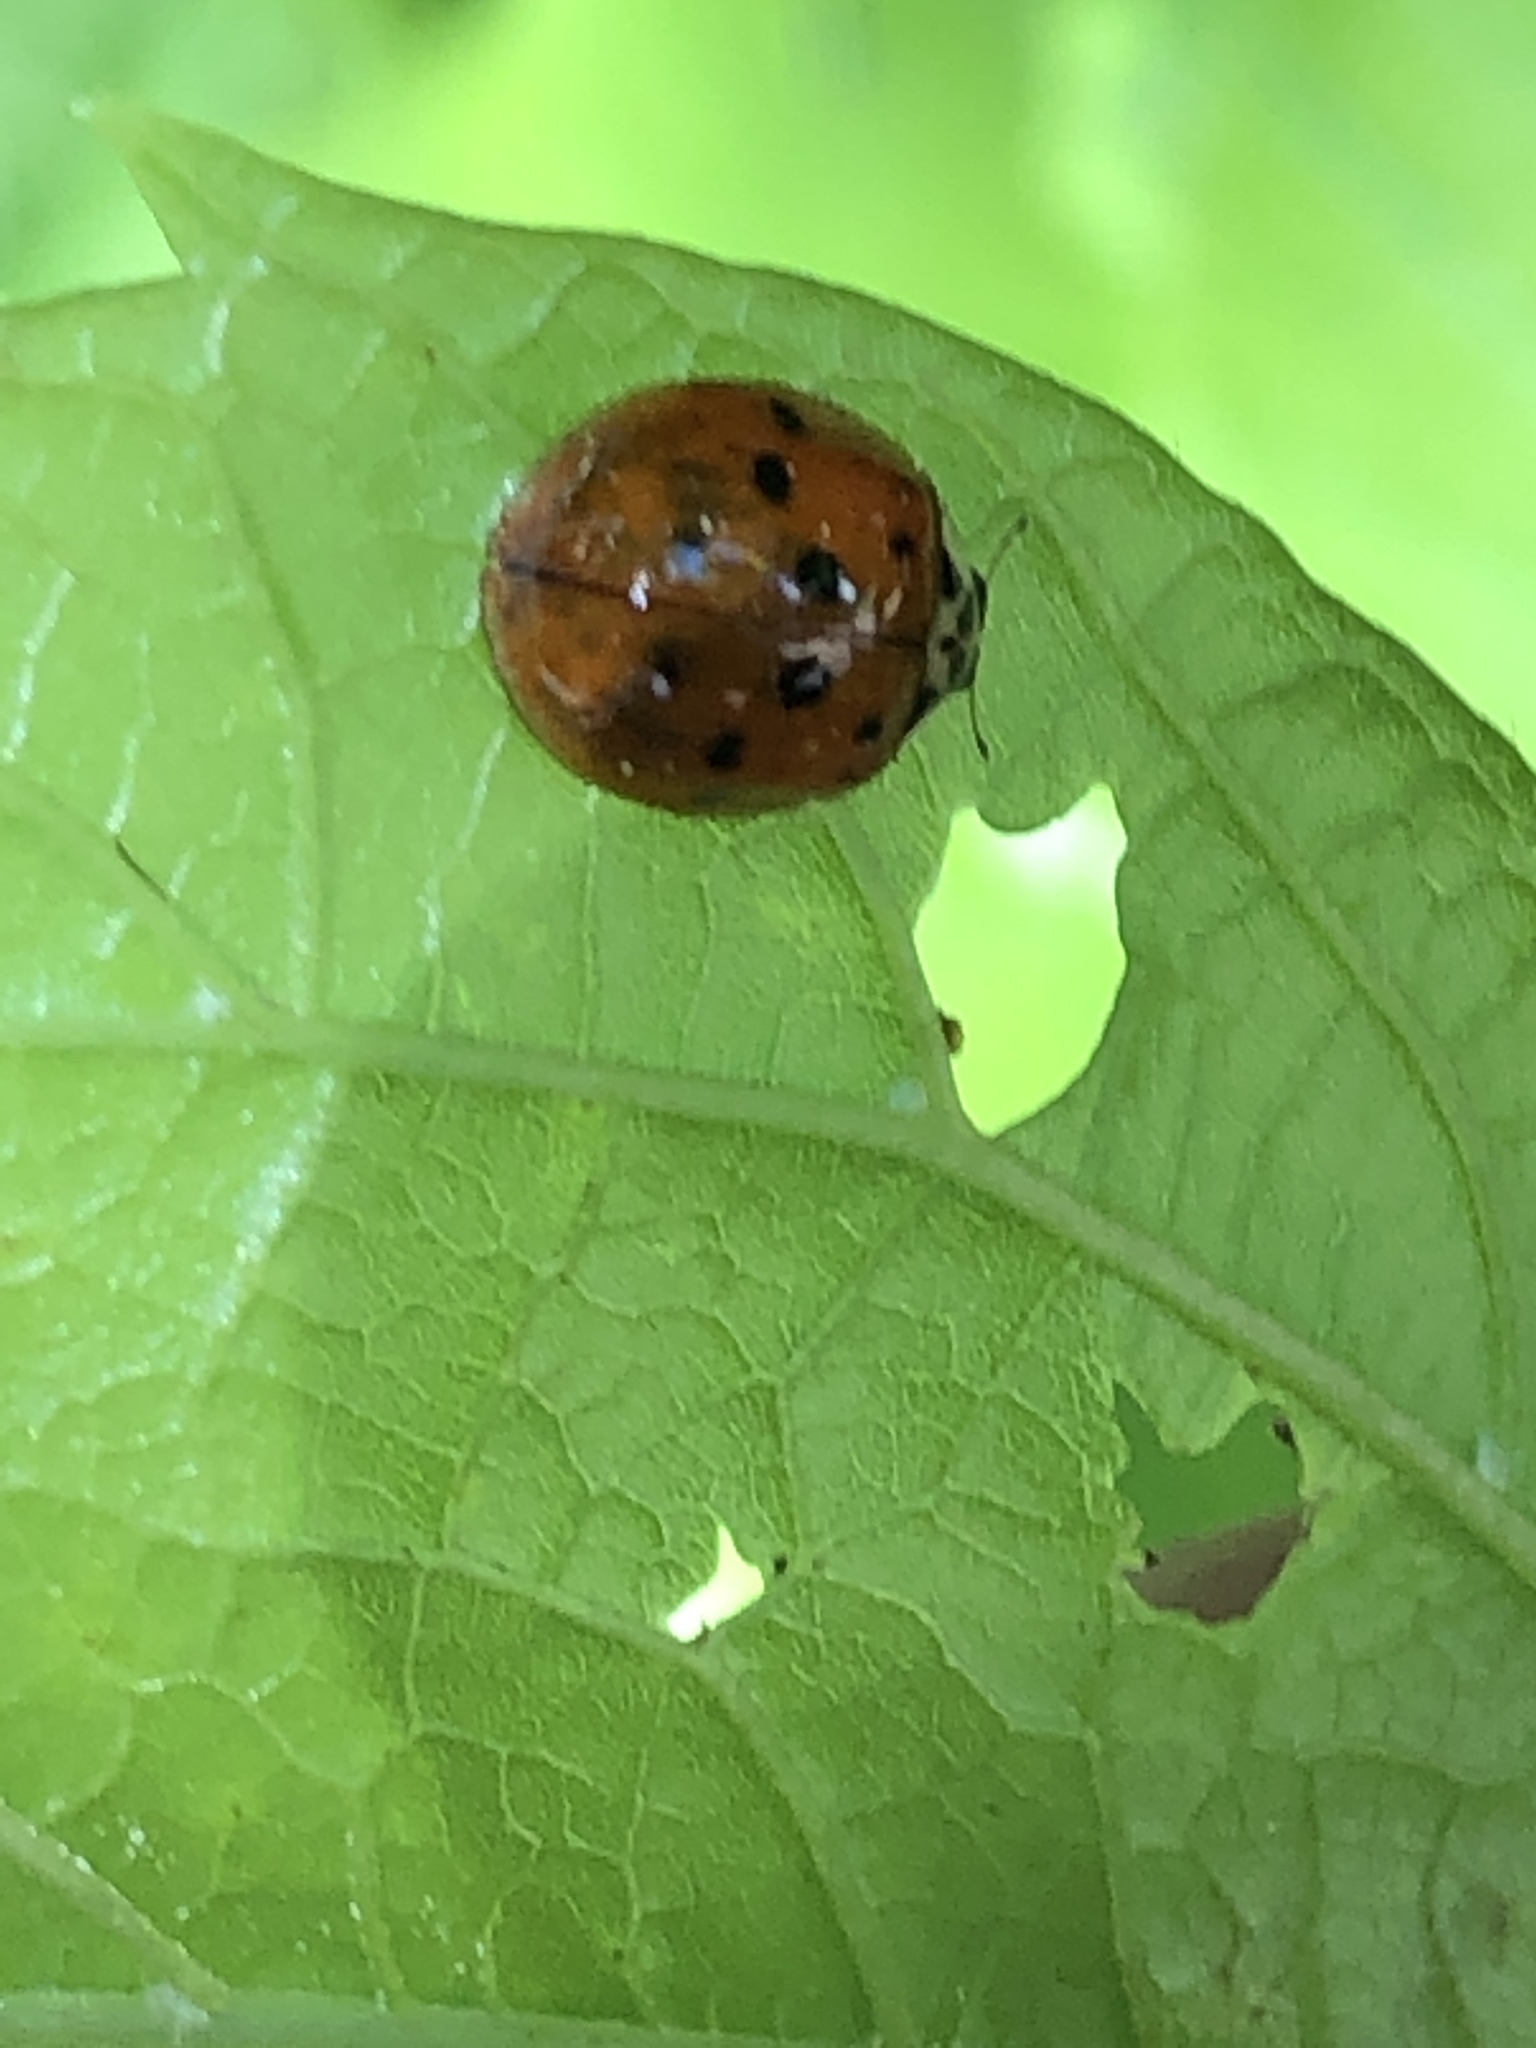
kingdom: Animalia
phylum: Arthropoda
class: Insecta
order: Coleoptera
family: Coccinellidae
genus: Harmonia
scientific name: Harmonia axyridis
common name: Harlequin ladybird
